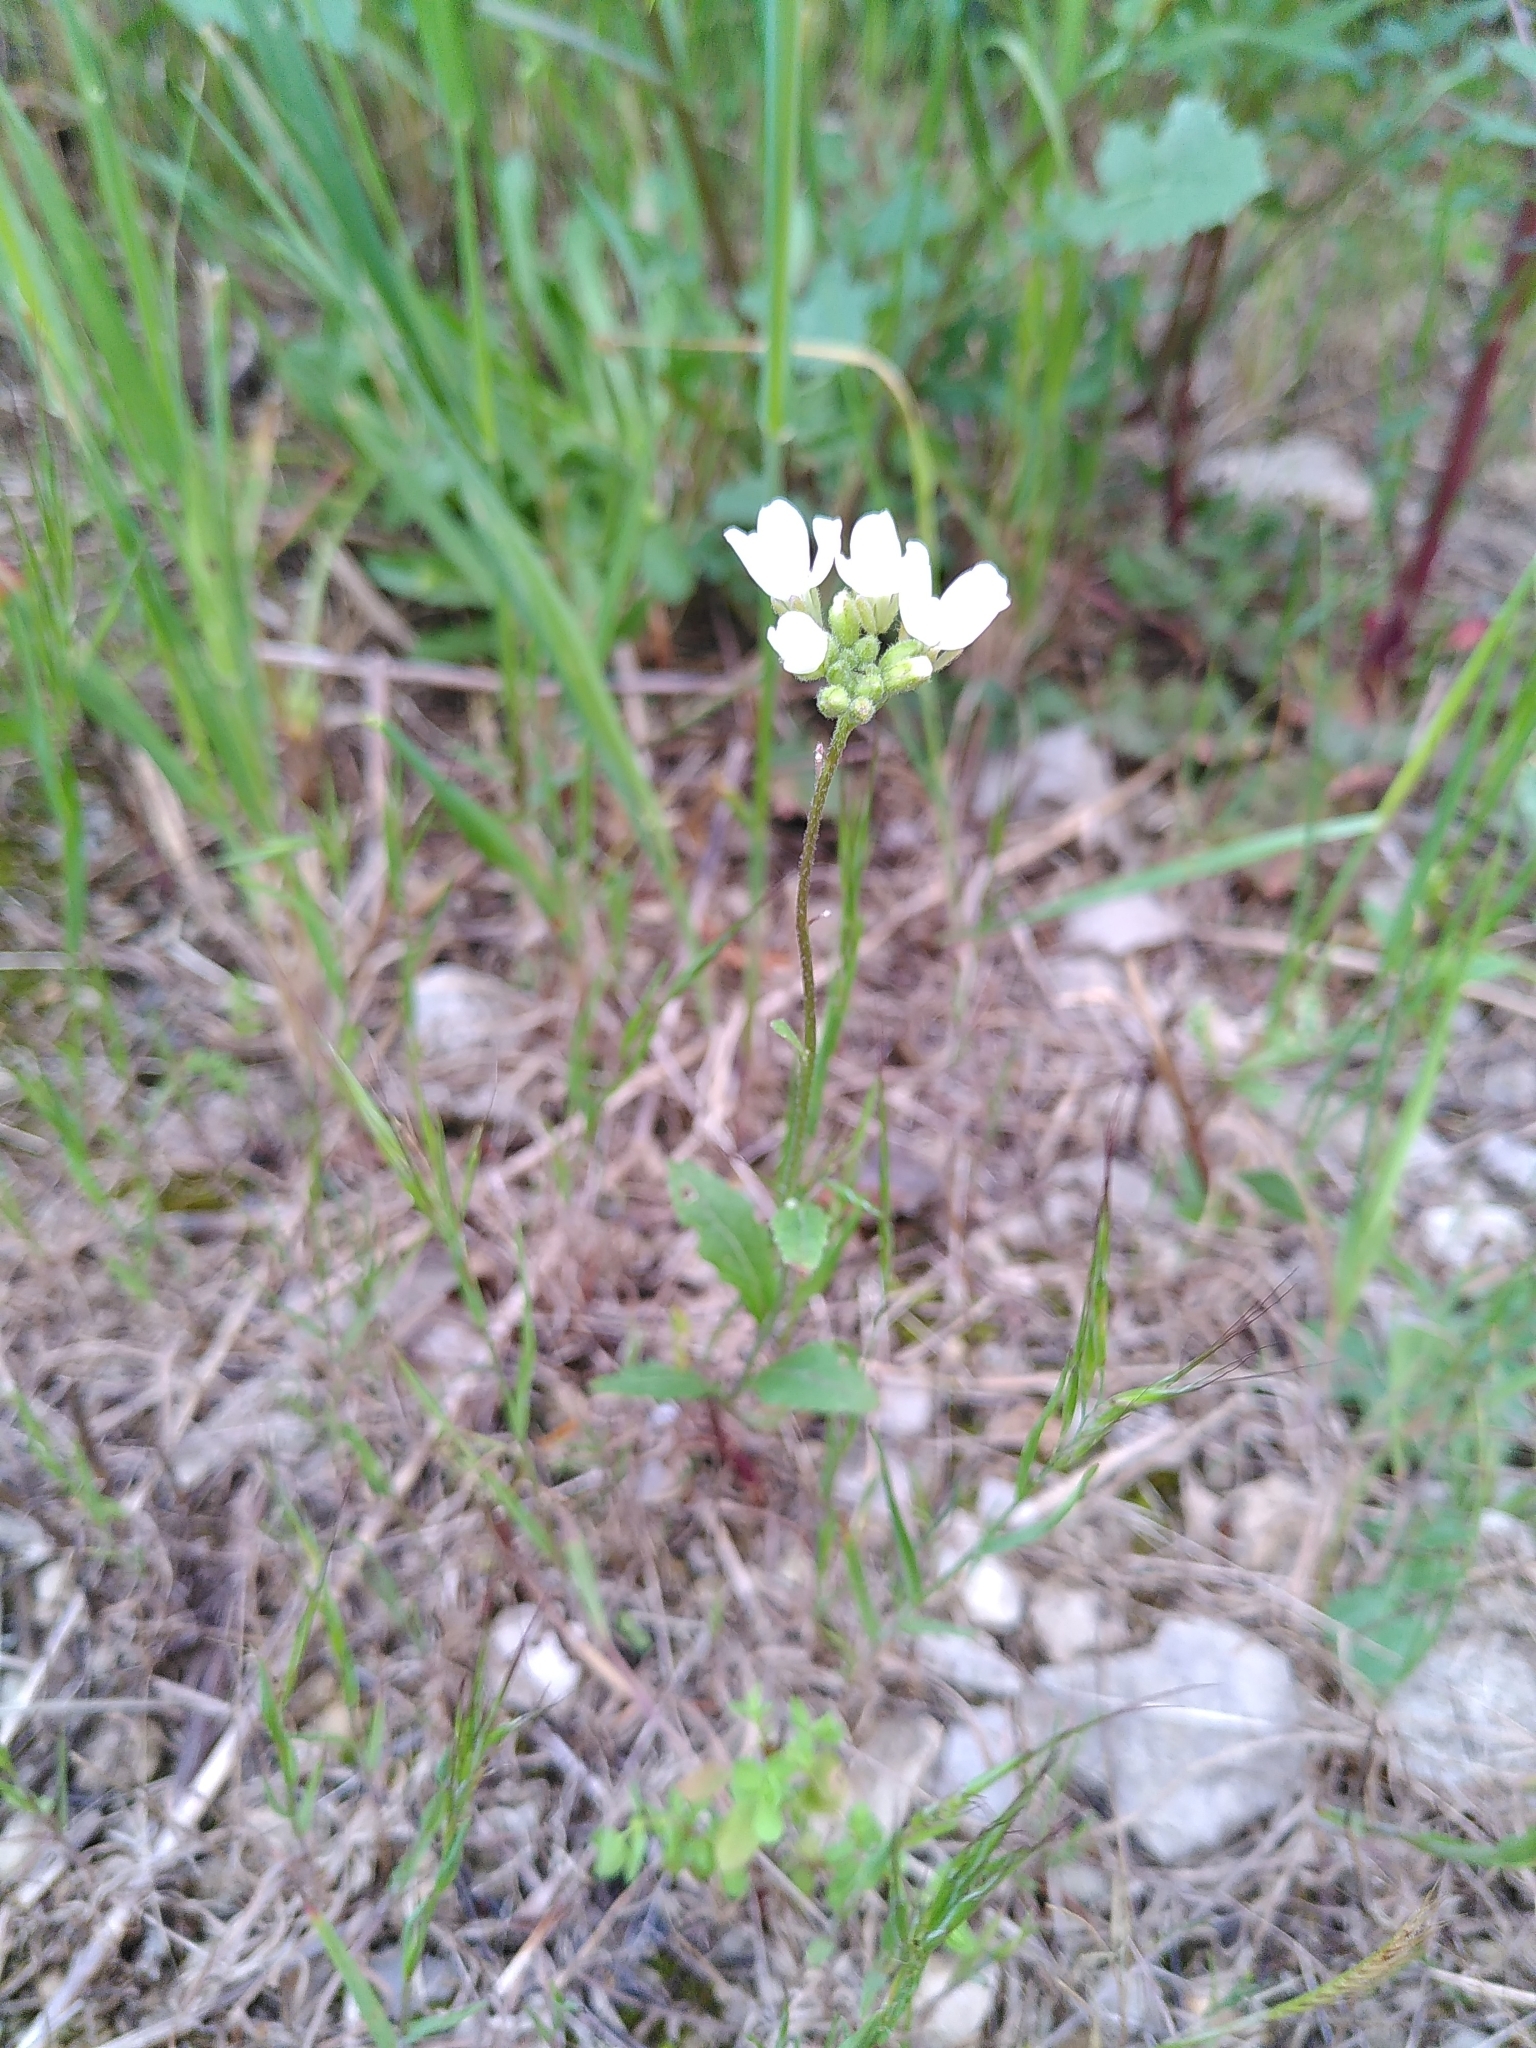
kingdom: Plantae
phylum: Tracheophyta
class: Magnoliopsida
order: Brassicales
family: Brassicaceae
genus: Diplotaxis
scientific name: Diplotaxis erucoides
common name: White rocket
